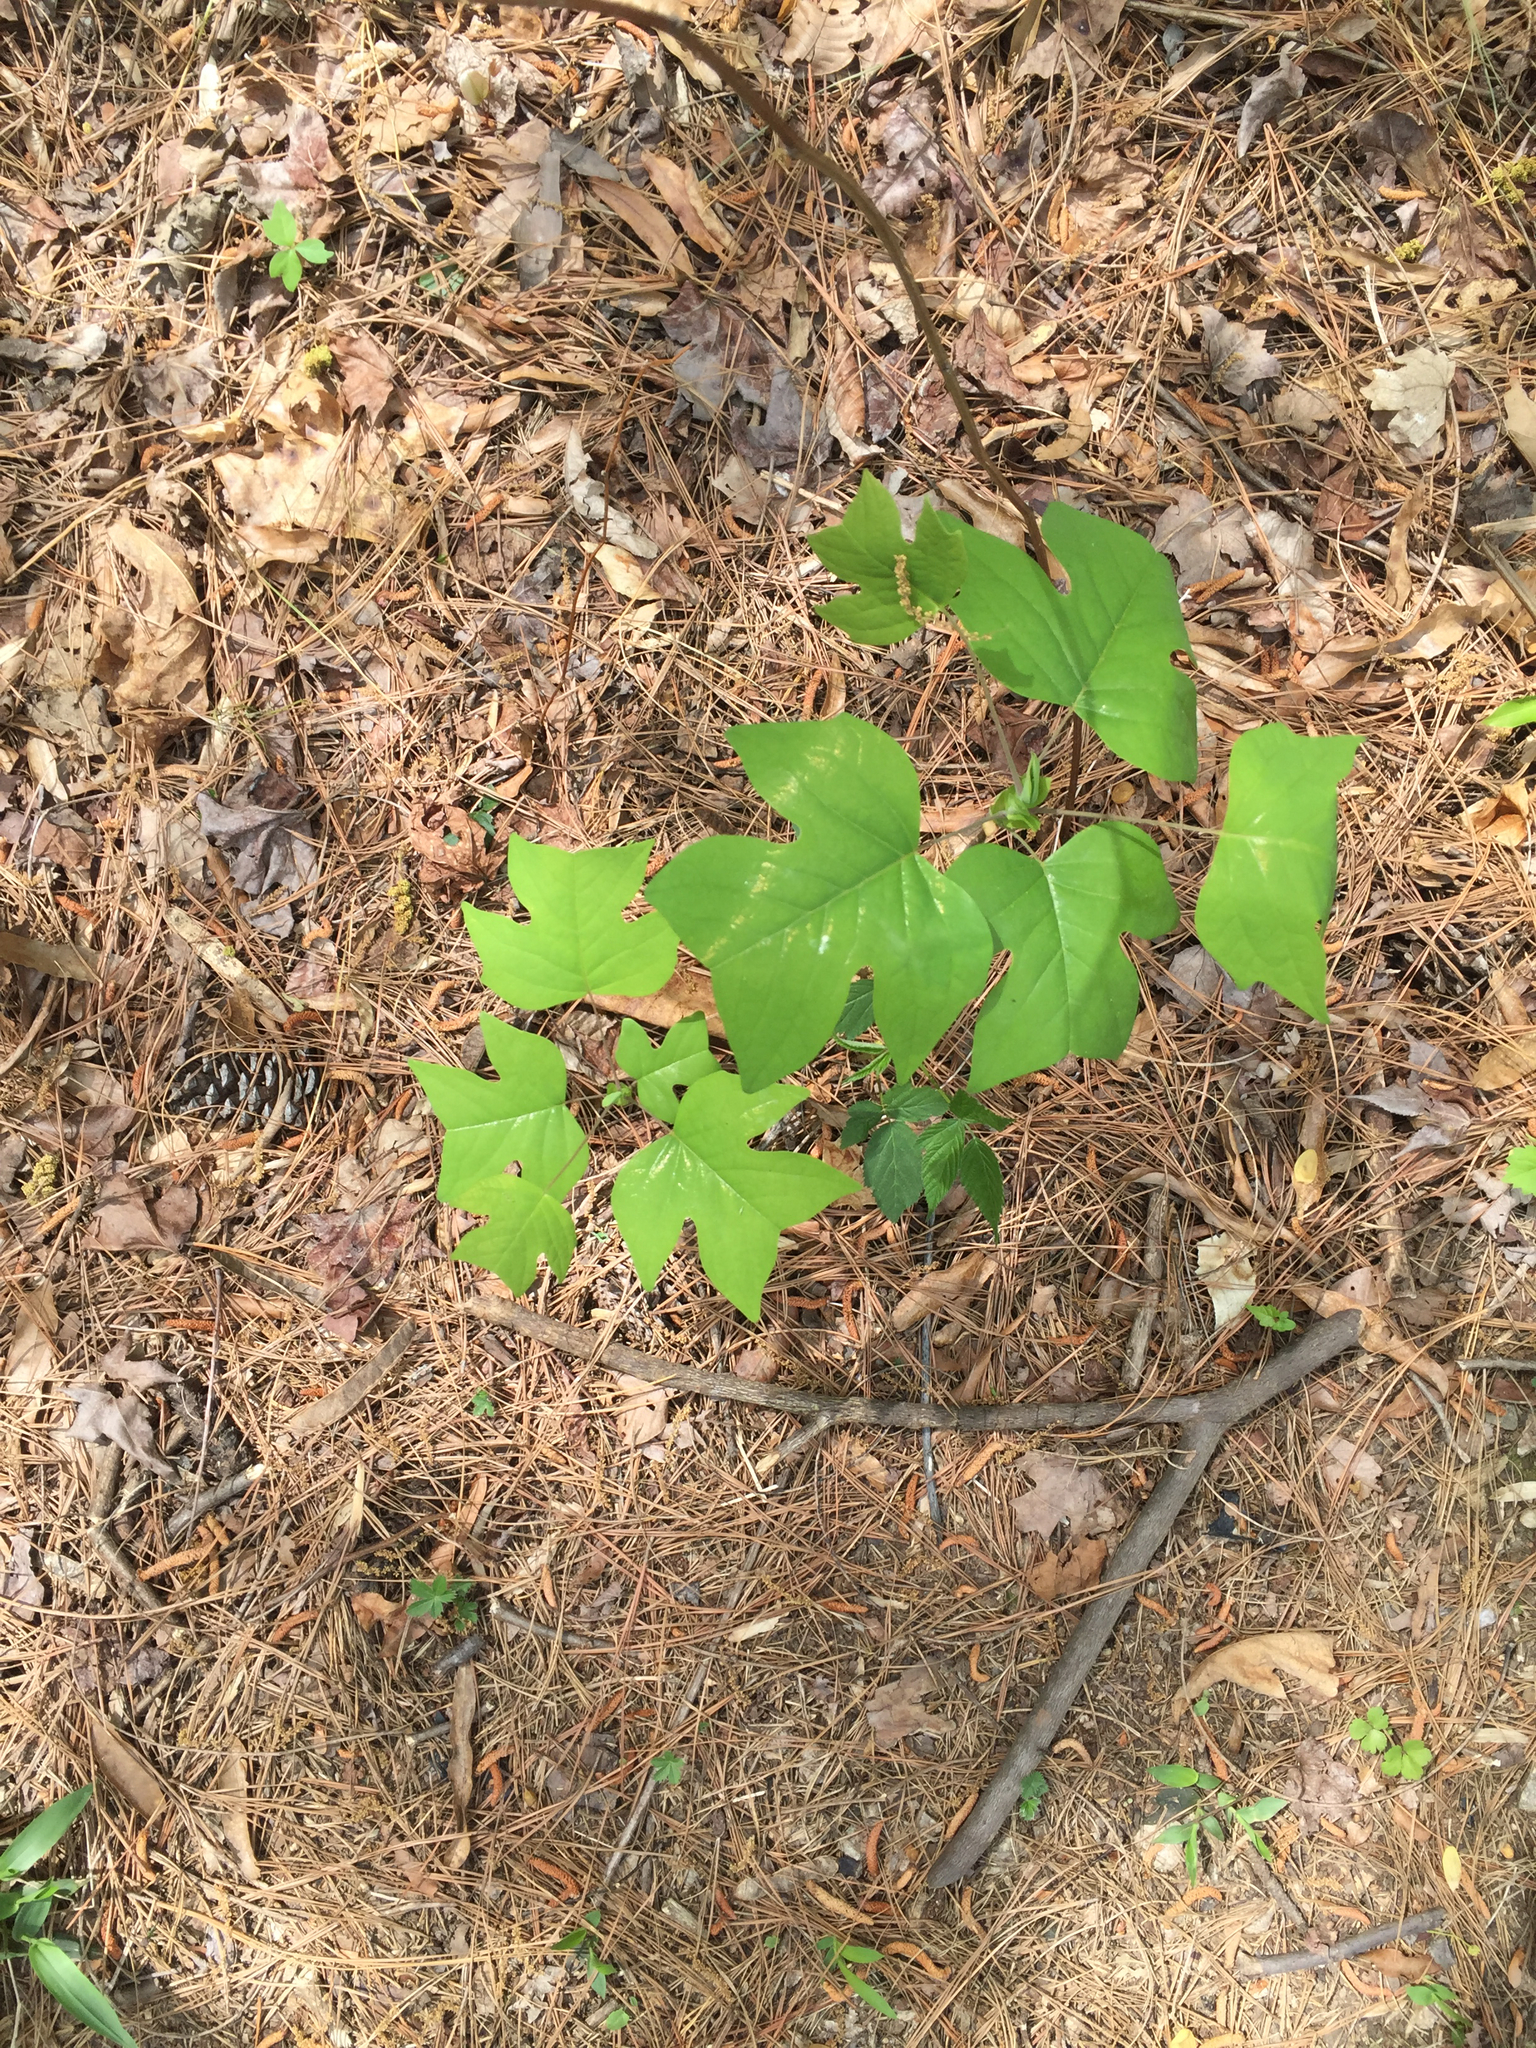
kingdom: Plantae
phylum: Tracheophyta
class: Magnoliopsida
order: Magnoliales
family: Magnoliaceae
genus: Liriodendron
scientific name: Liriodendron tulipifera
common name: Tulip tree
